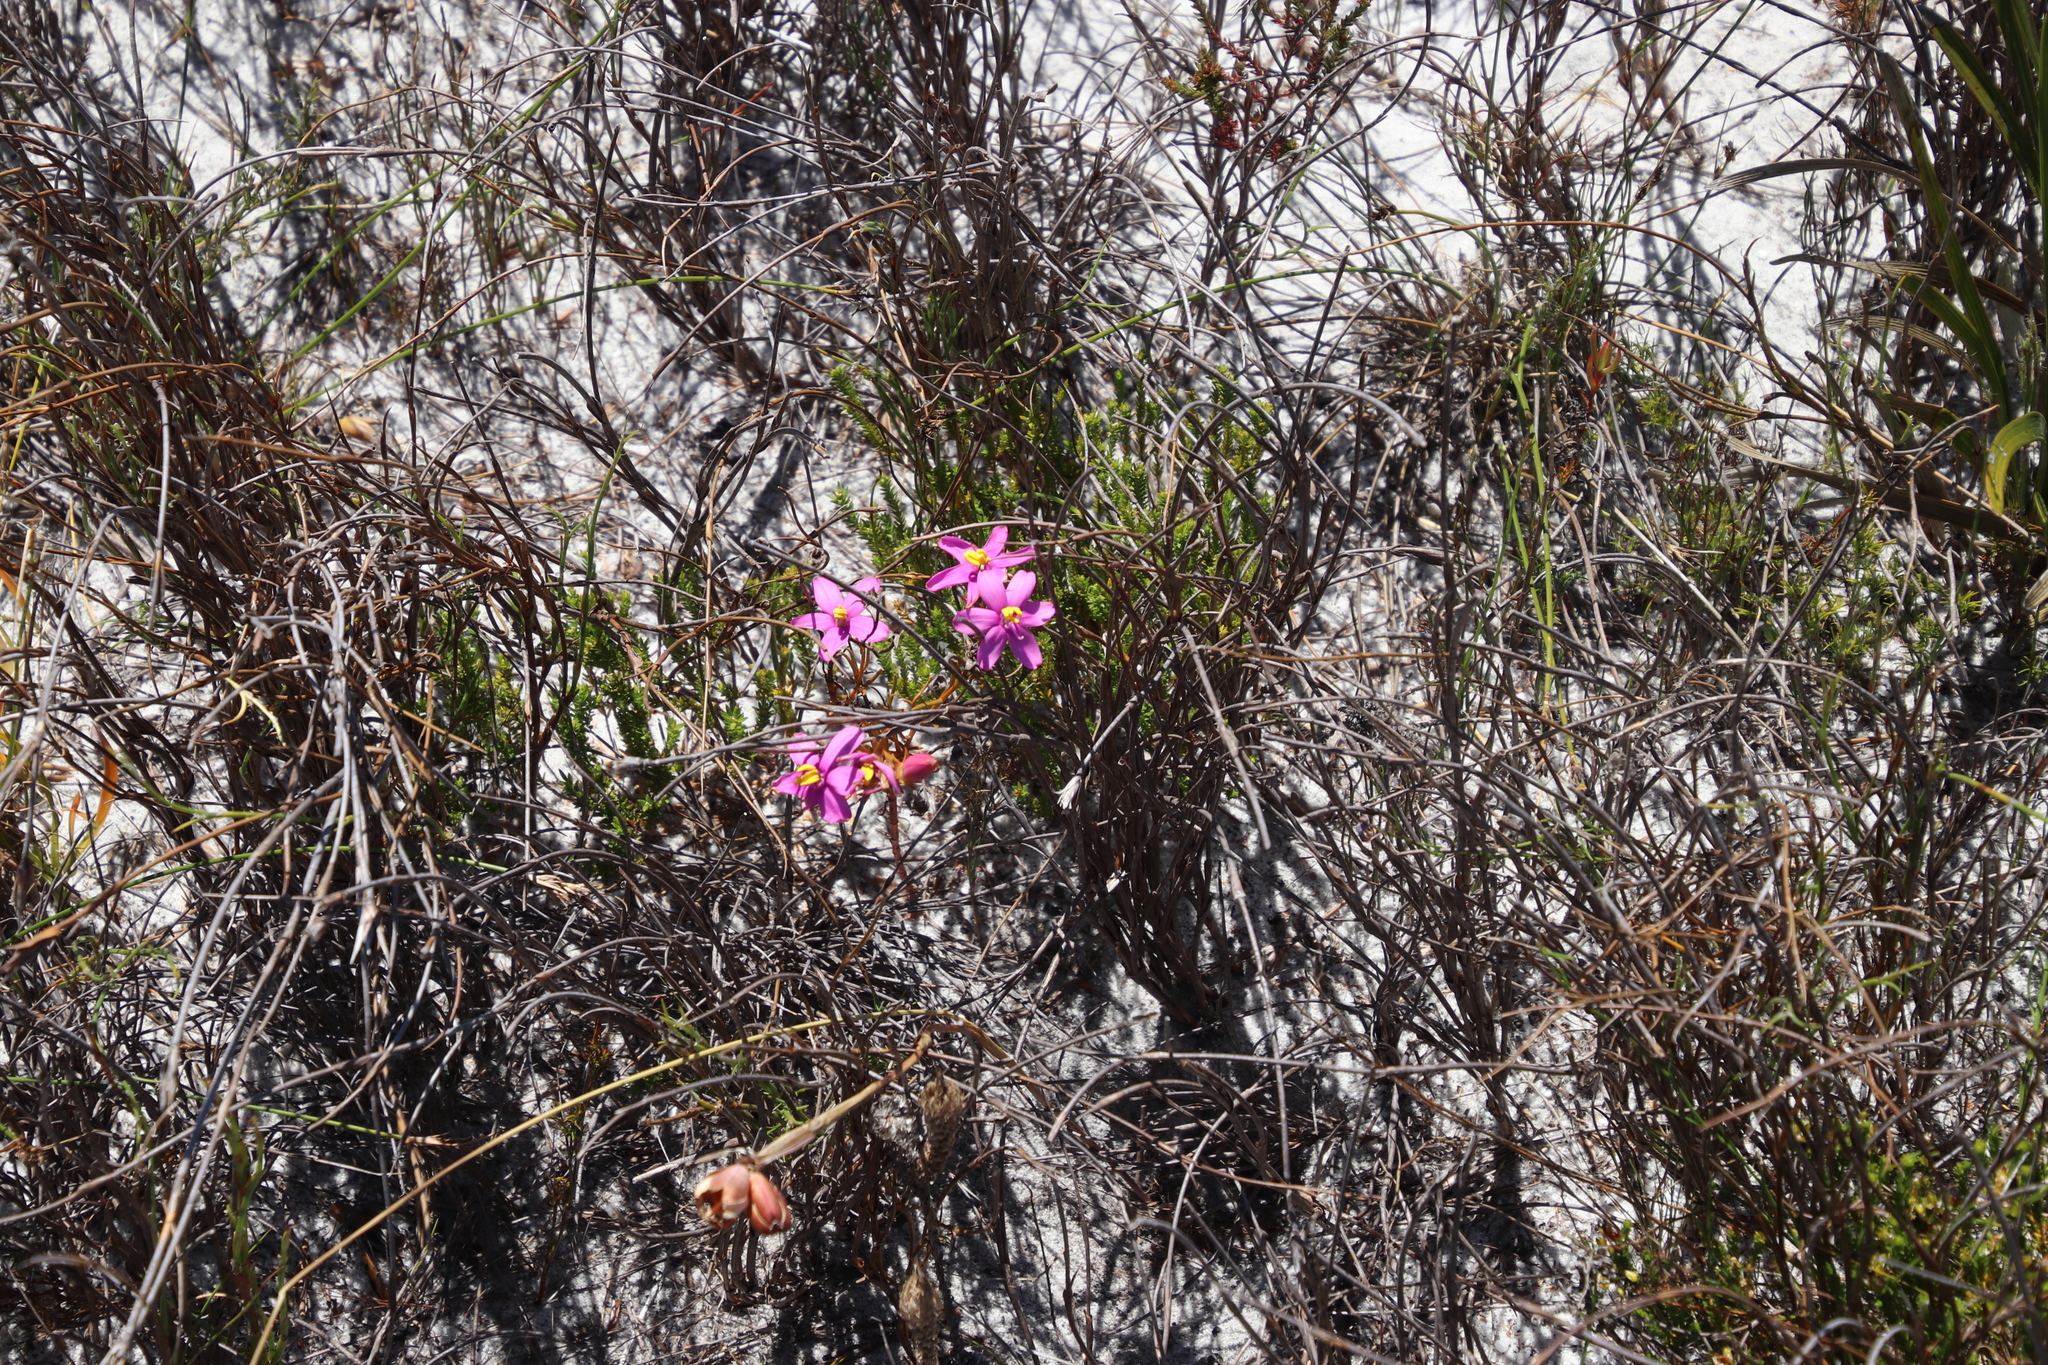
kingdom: Plantae
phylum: Tracheophyta
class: Magnoliopsida
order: Gentianales
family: Gentianaceae
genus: Chironia
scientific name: Chironia linoides
